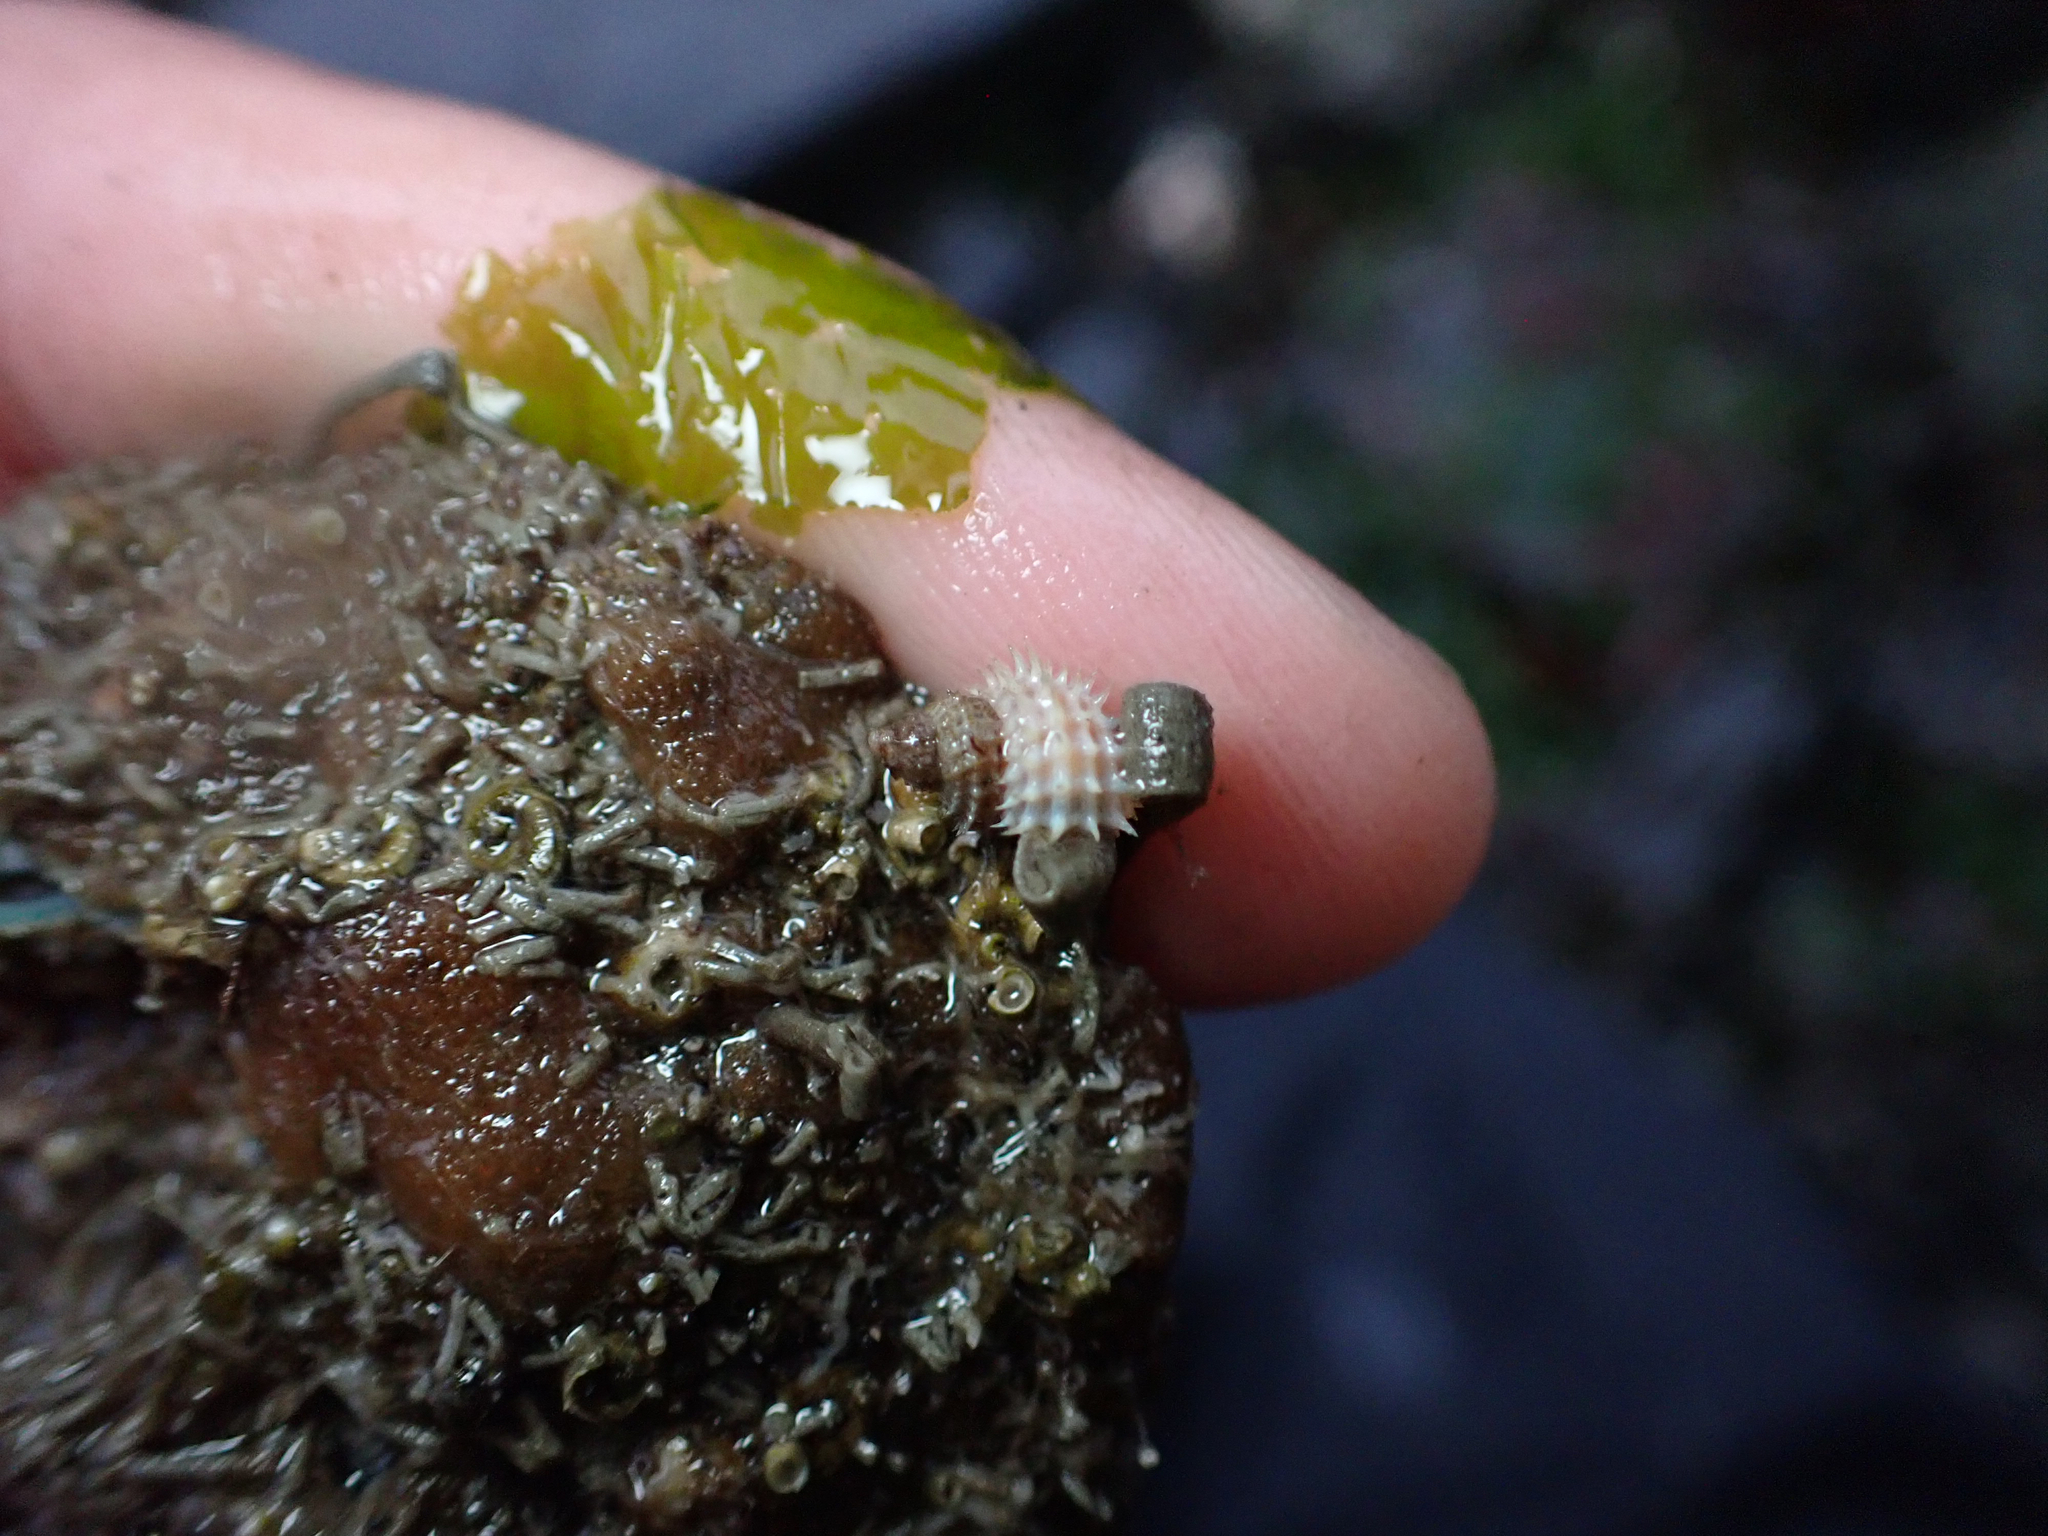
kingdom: Animalia
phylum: Mollusca
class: Gastropoda
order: Littorinimorpha
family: Capulidae
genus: Trichotropis
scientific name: Trichotropis cancellata
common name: Cancellate hairysnail
